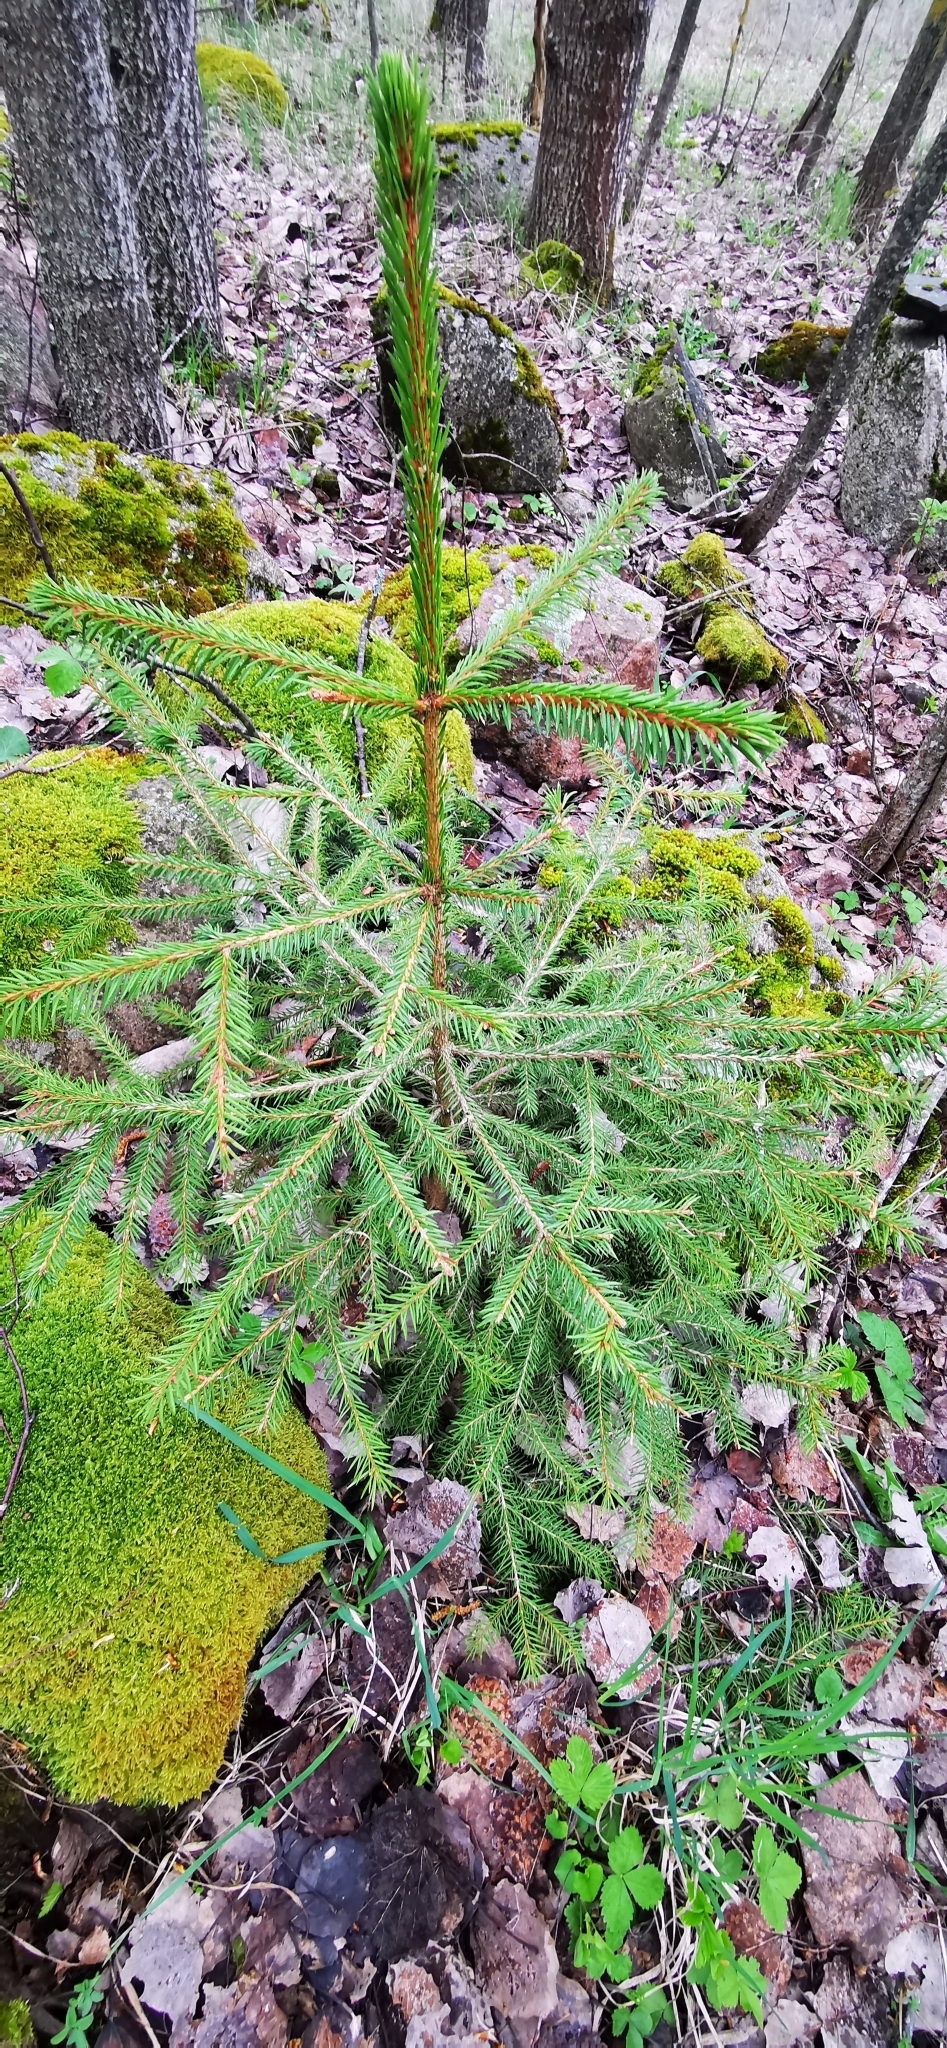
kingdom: Plantae
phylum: Tracheophyta
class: Pinopsida
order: Pinales
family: Pinaceae
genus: Picea
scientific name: Picea abies
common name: Norway spruce
